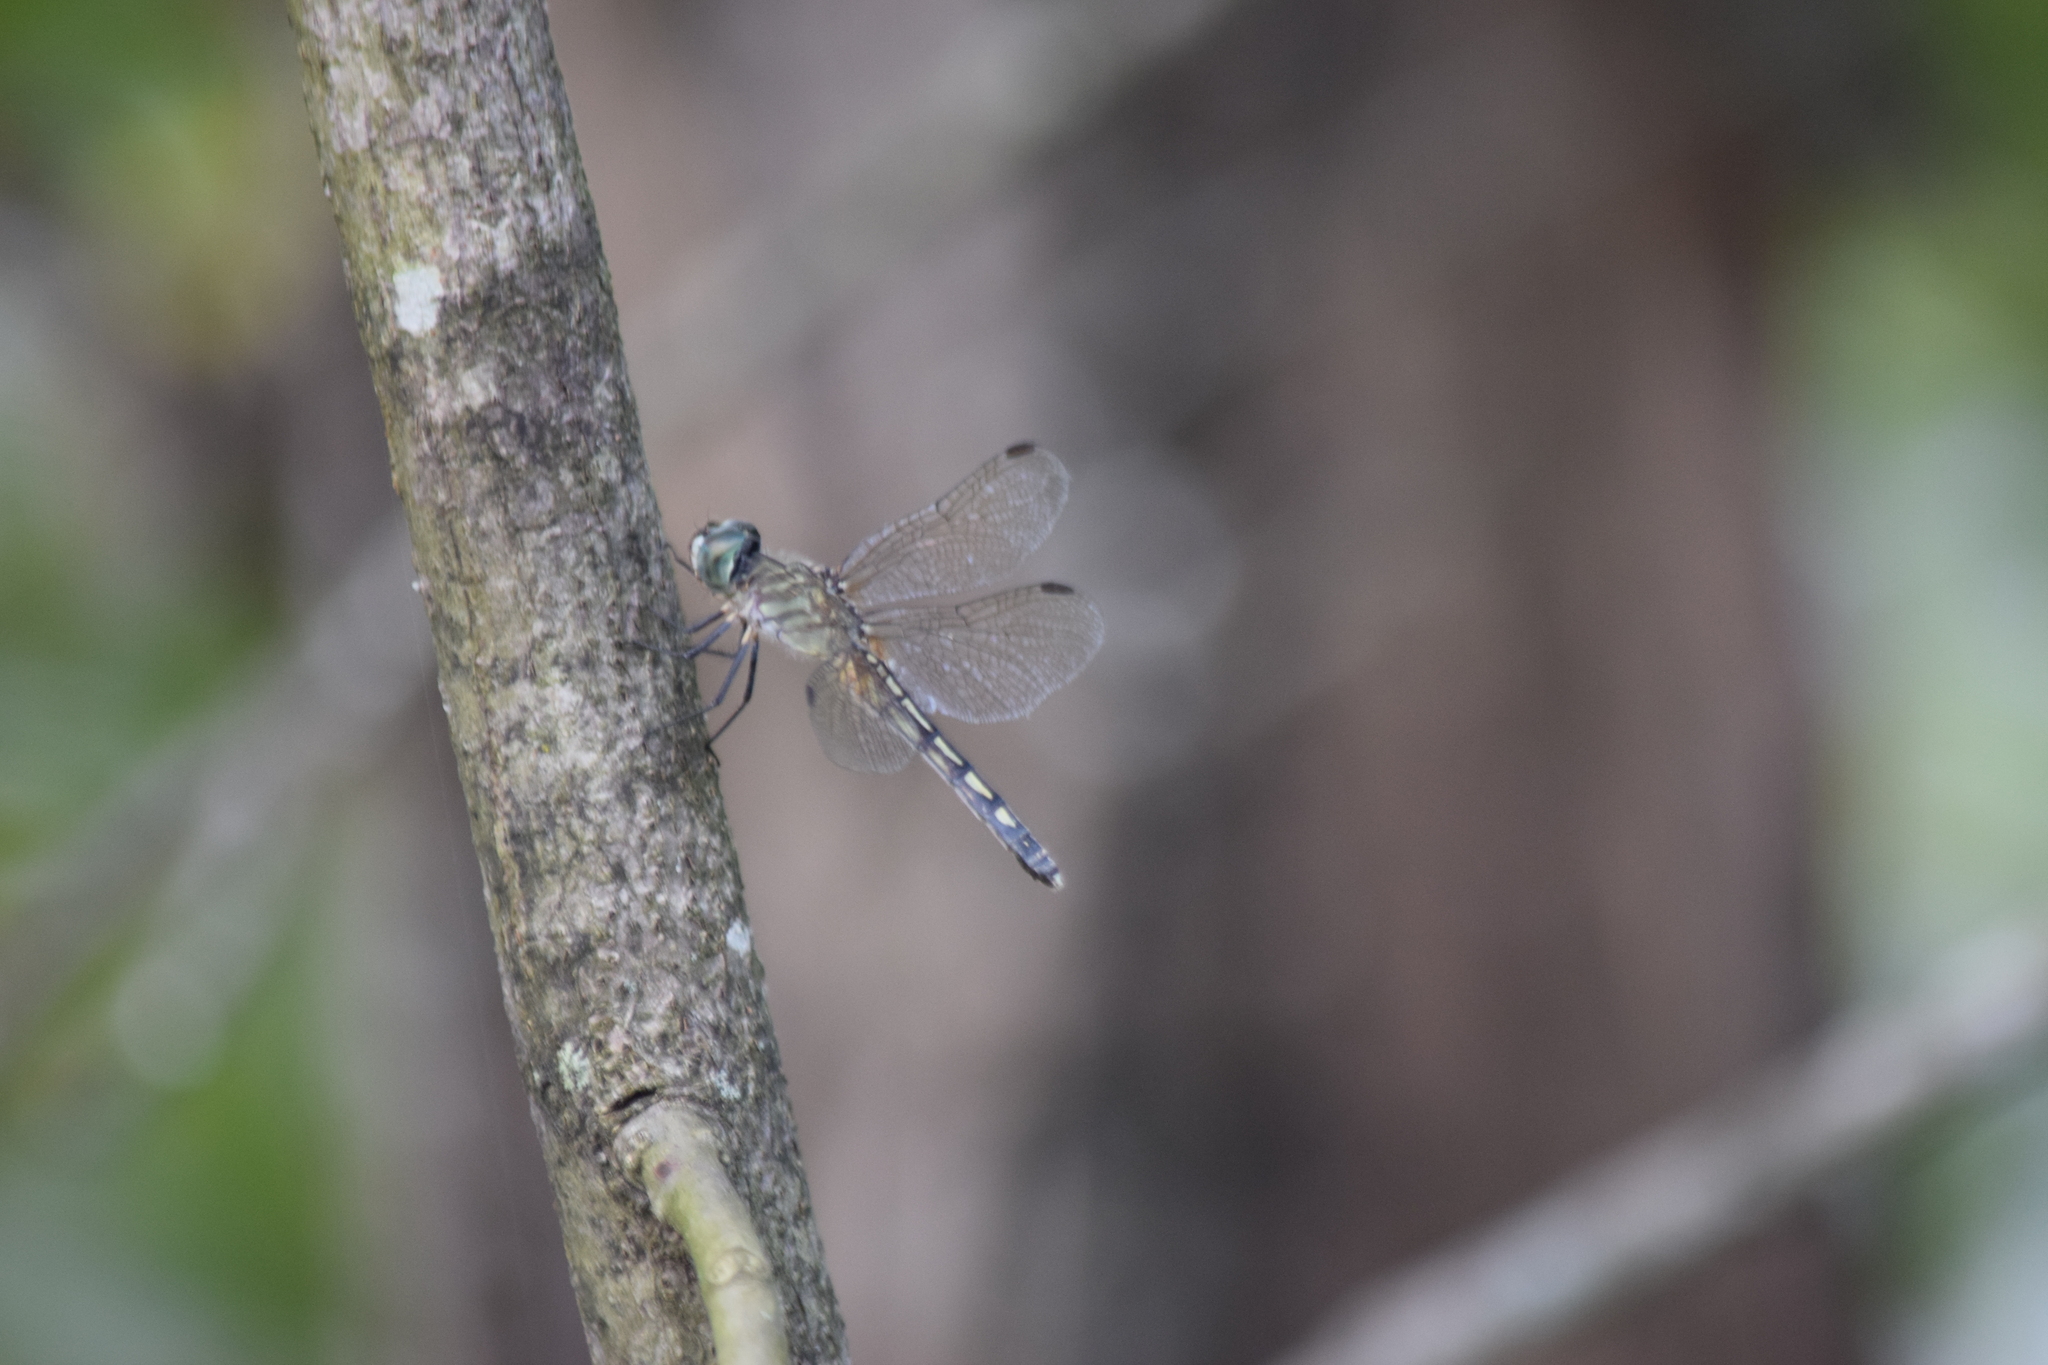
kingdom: Animalia
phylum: Arthropoda
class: Insecta
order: Odonata
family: Libellulidae
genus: Pachydiplax
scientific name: Pachydiplax longipennis
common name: Blue dasher
